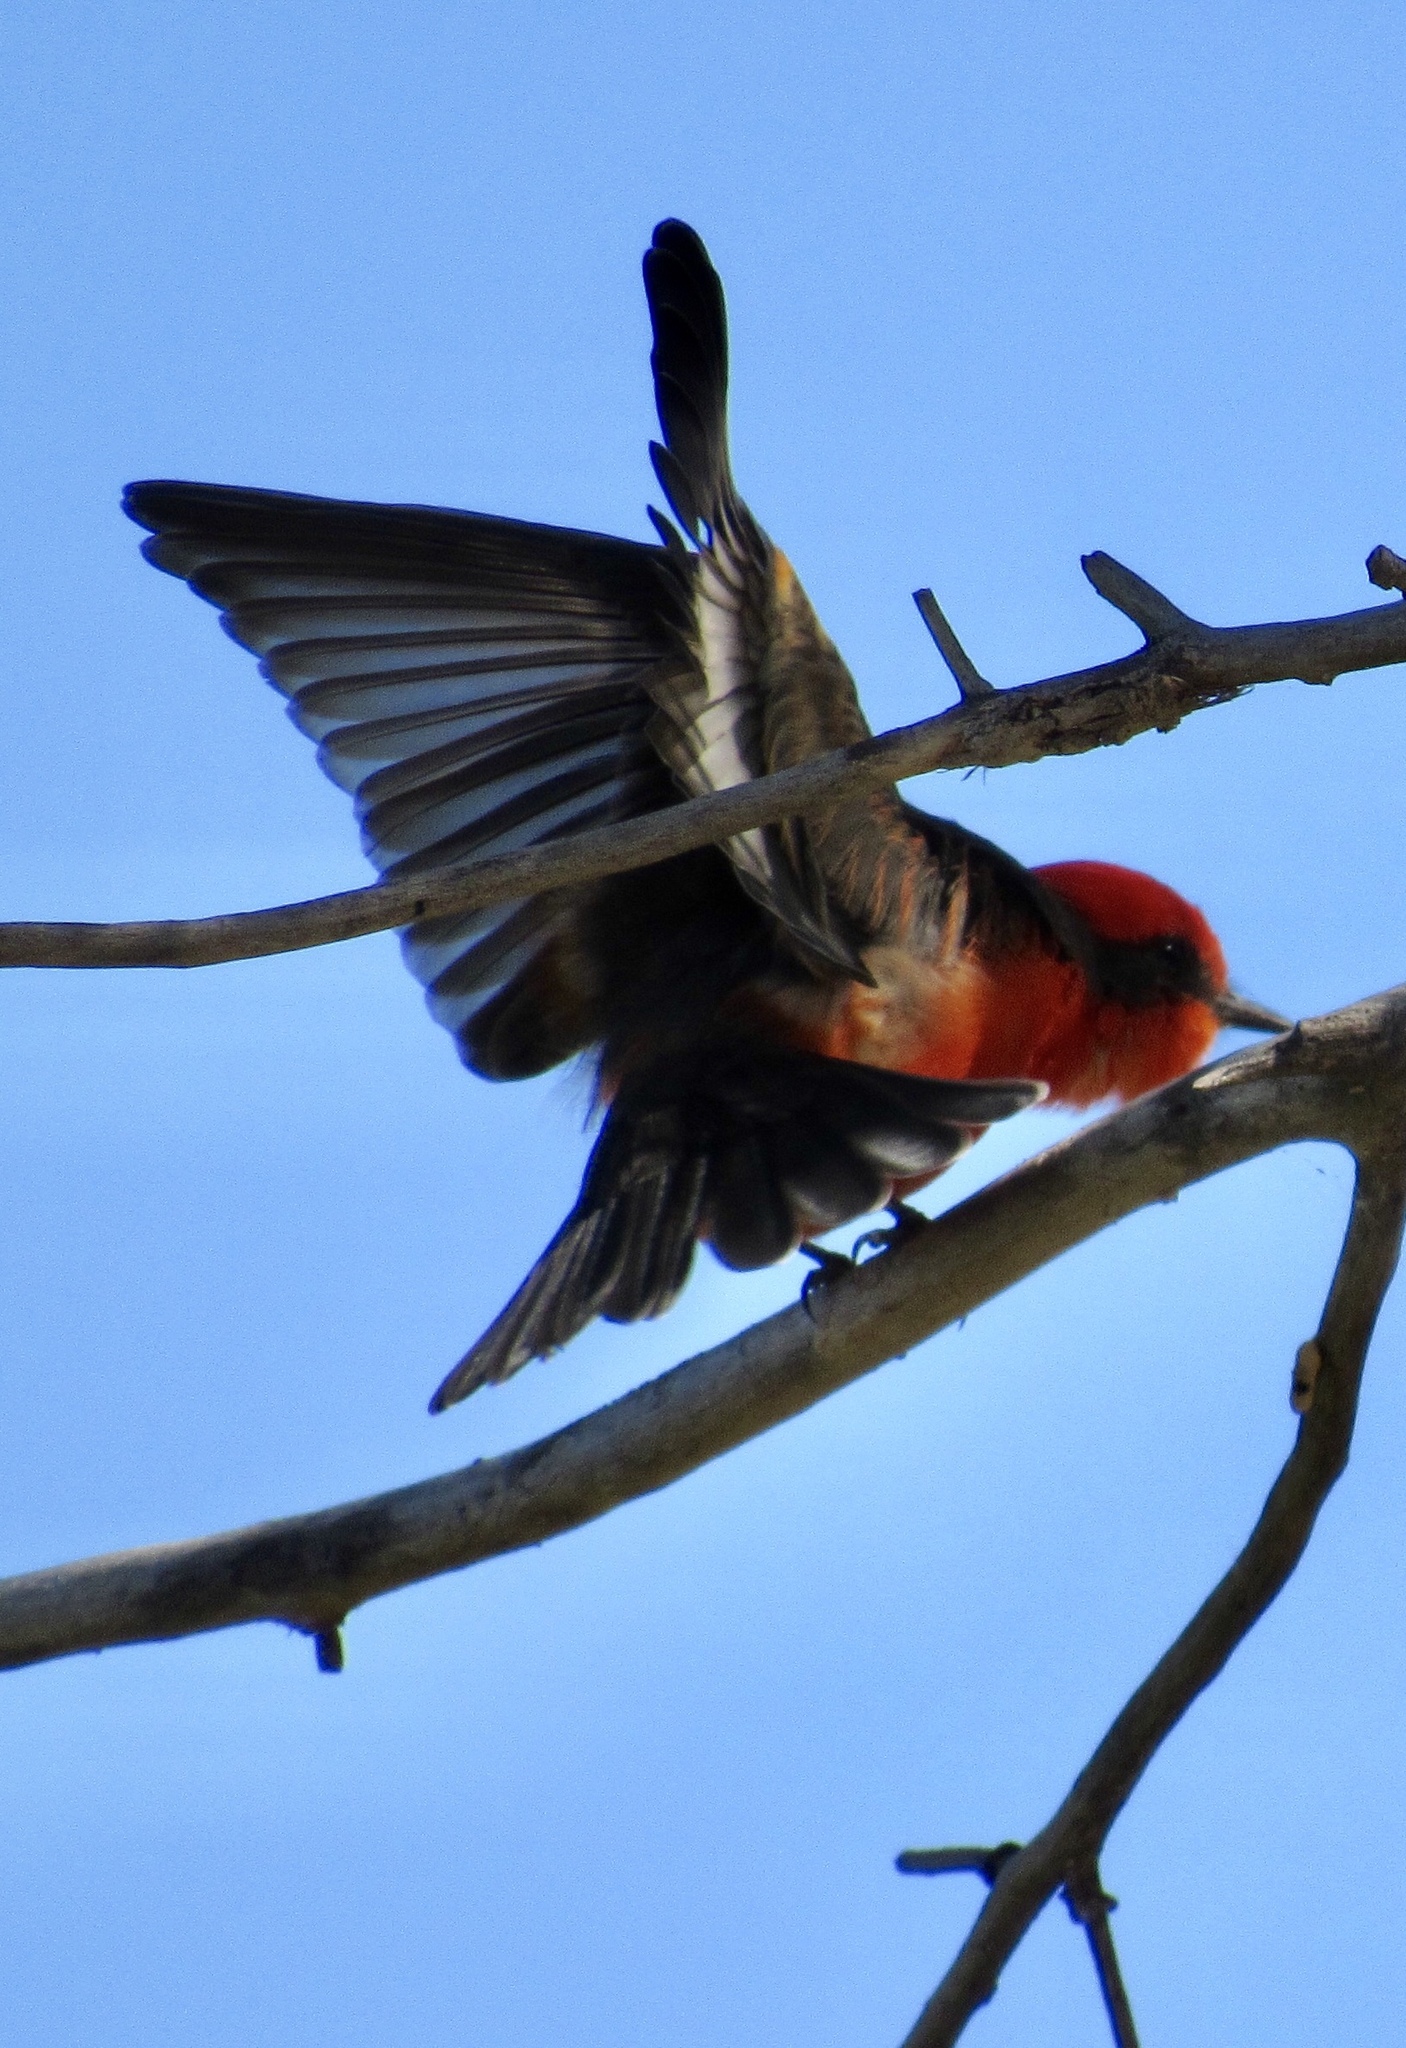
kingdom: Animalia
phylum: Chordata
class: Aves
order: Passeriformes
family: Tyrannidae
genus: Pyrocephalus
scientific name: Pyrocephalus rubinus
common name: Vermilion flycatcher
